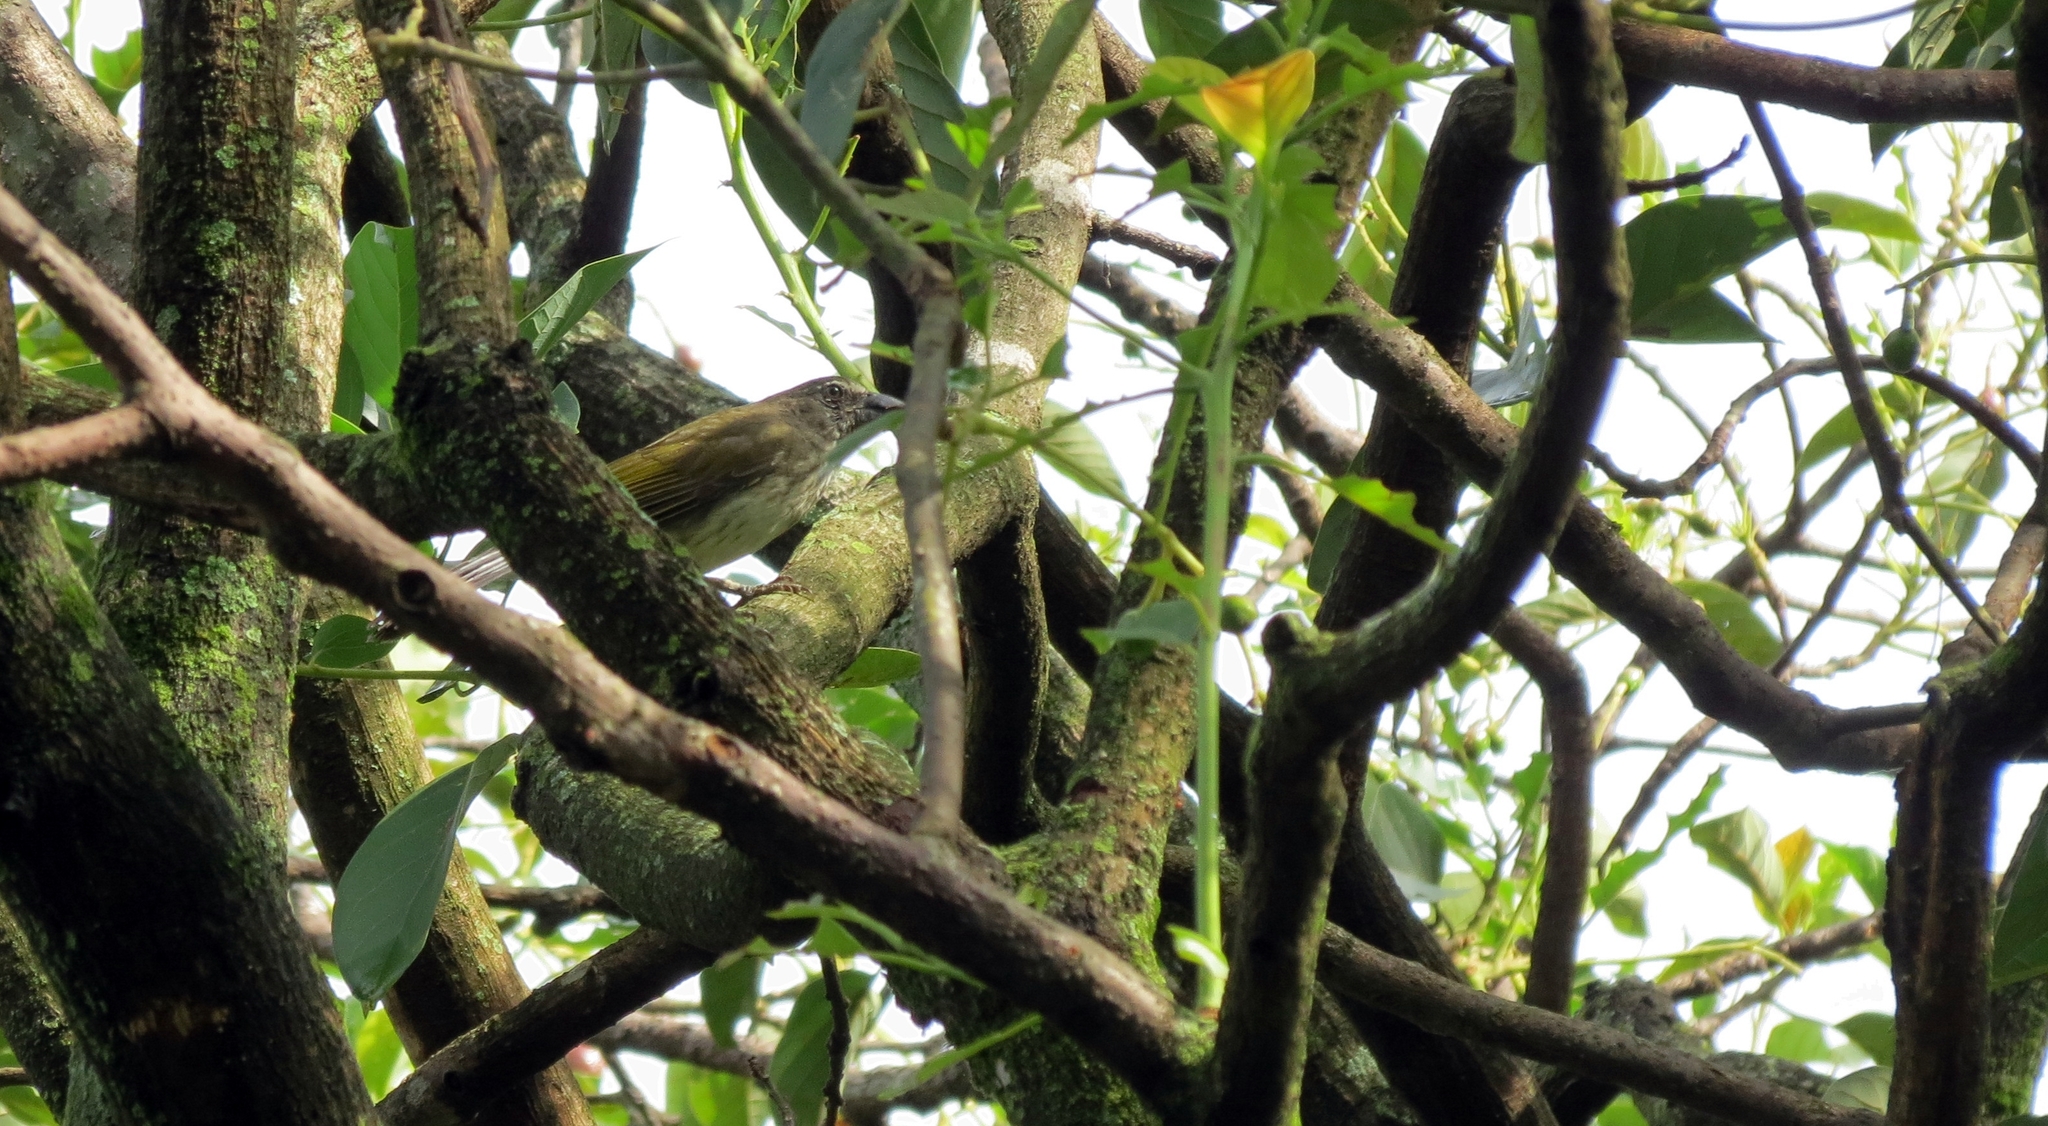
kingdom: Animalia
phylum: Chordata
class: Aves
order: Passeriformes
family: Thraupidae
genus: Saltator
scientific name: Saltator striatipectus
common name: Streaked saltator
